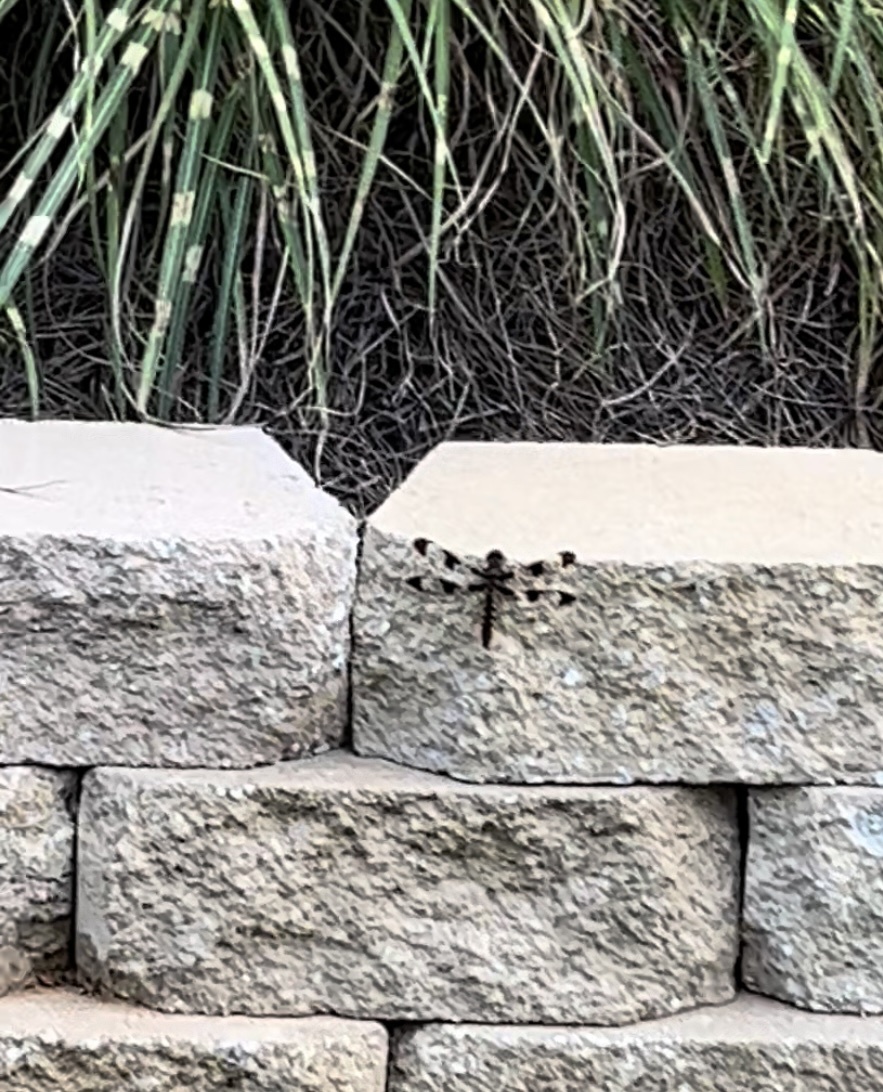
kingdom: Animalia
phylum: Arthropoda
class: Insecta
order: Odonata
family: Libellulidae
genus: Plathemis
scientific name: Plathemis lydia
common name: Common whitetail
